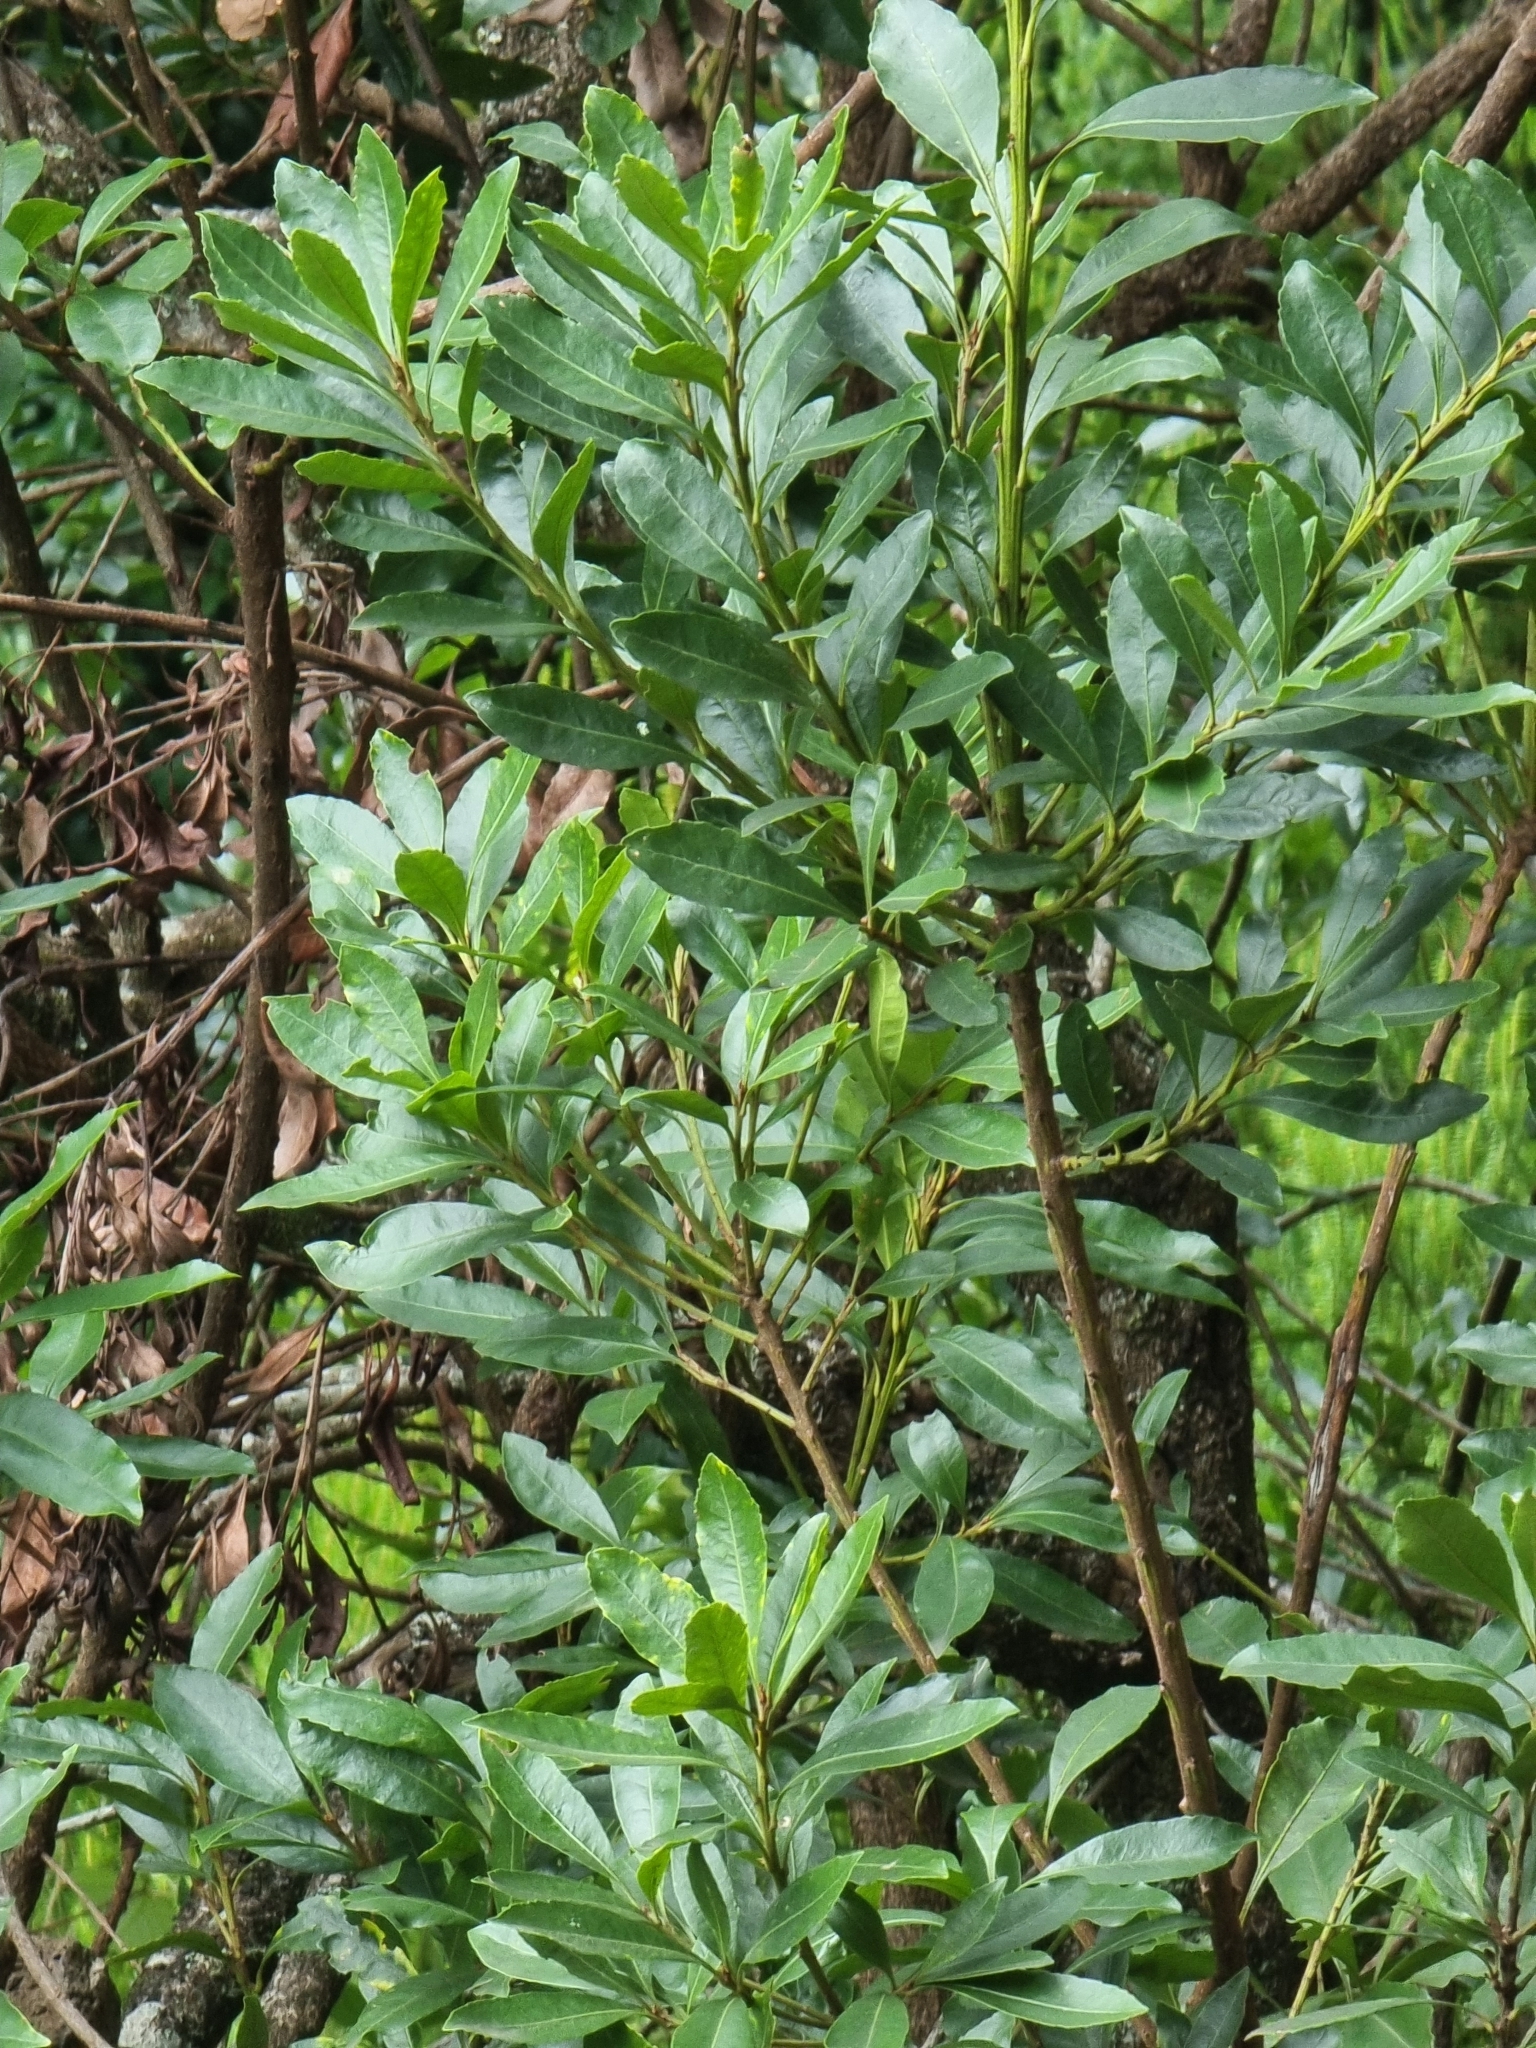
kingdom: Plantae
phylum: Tracheophyta
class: Magnoliopsida
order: Fagales
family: Myricaceae
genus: Morella
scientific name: Morella faya
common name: Firetree
